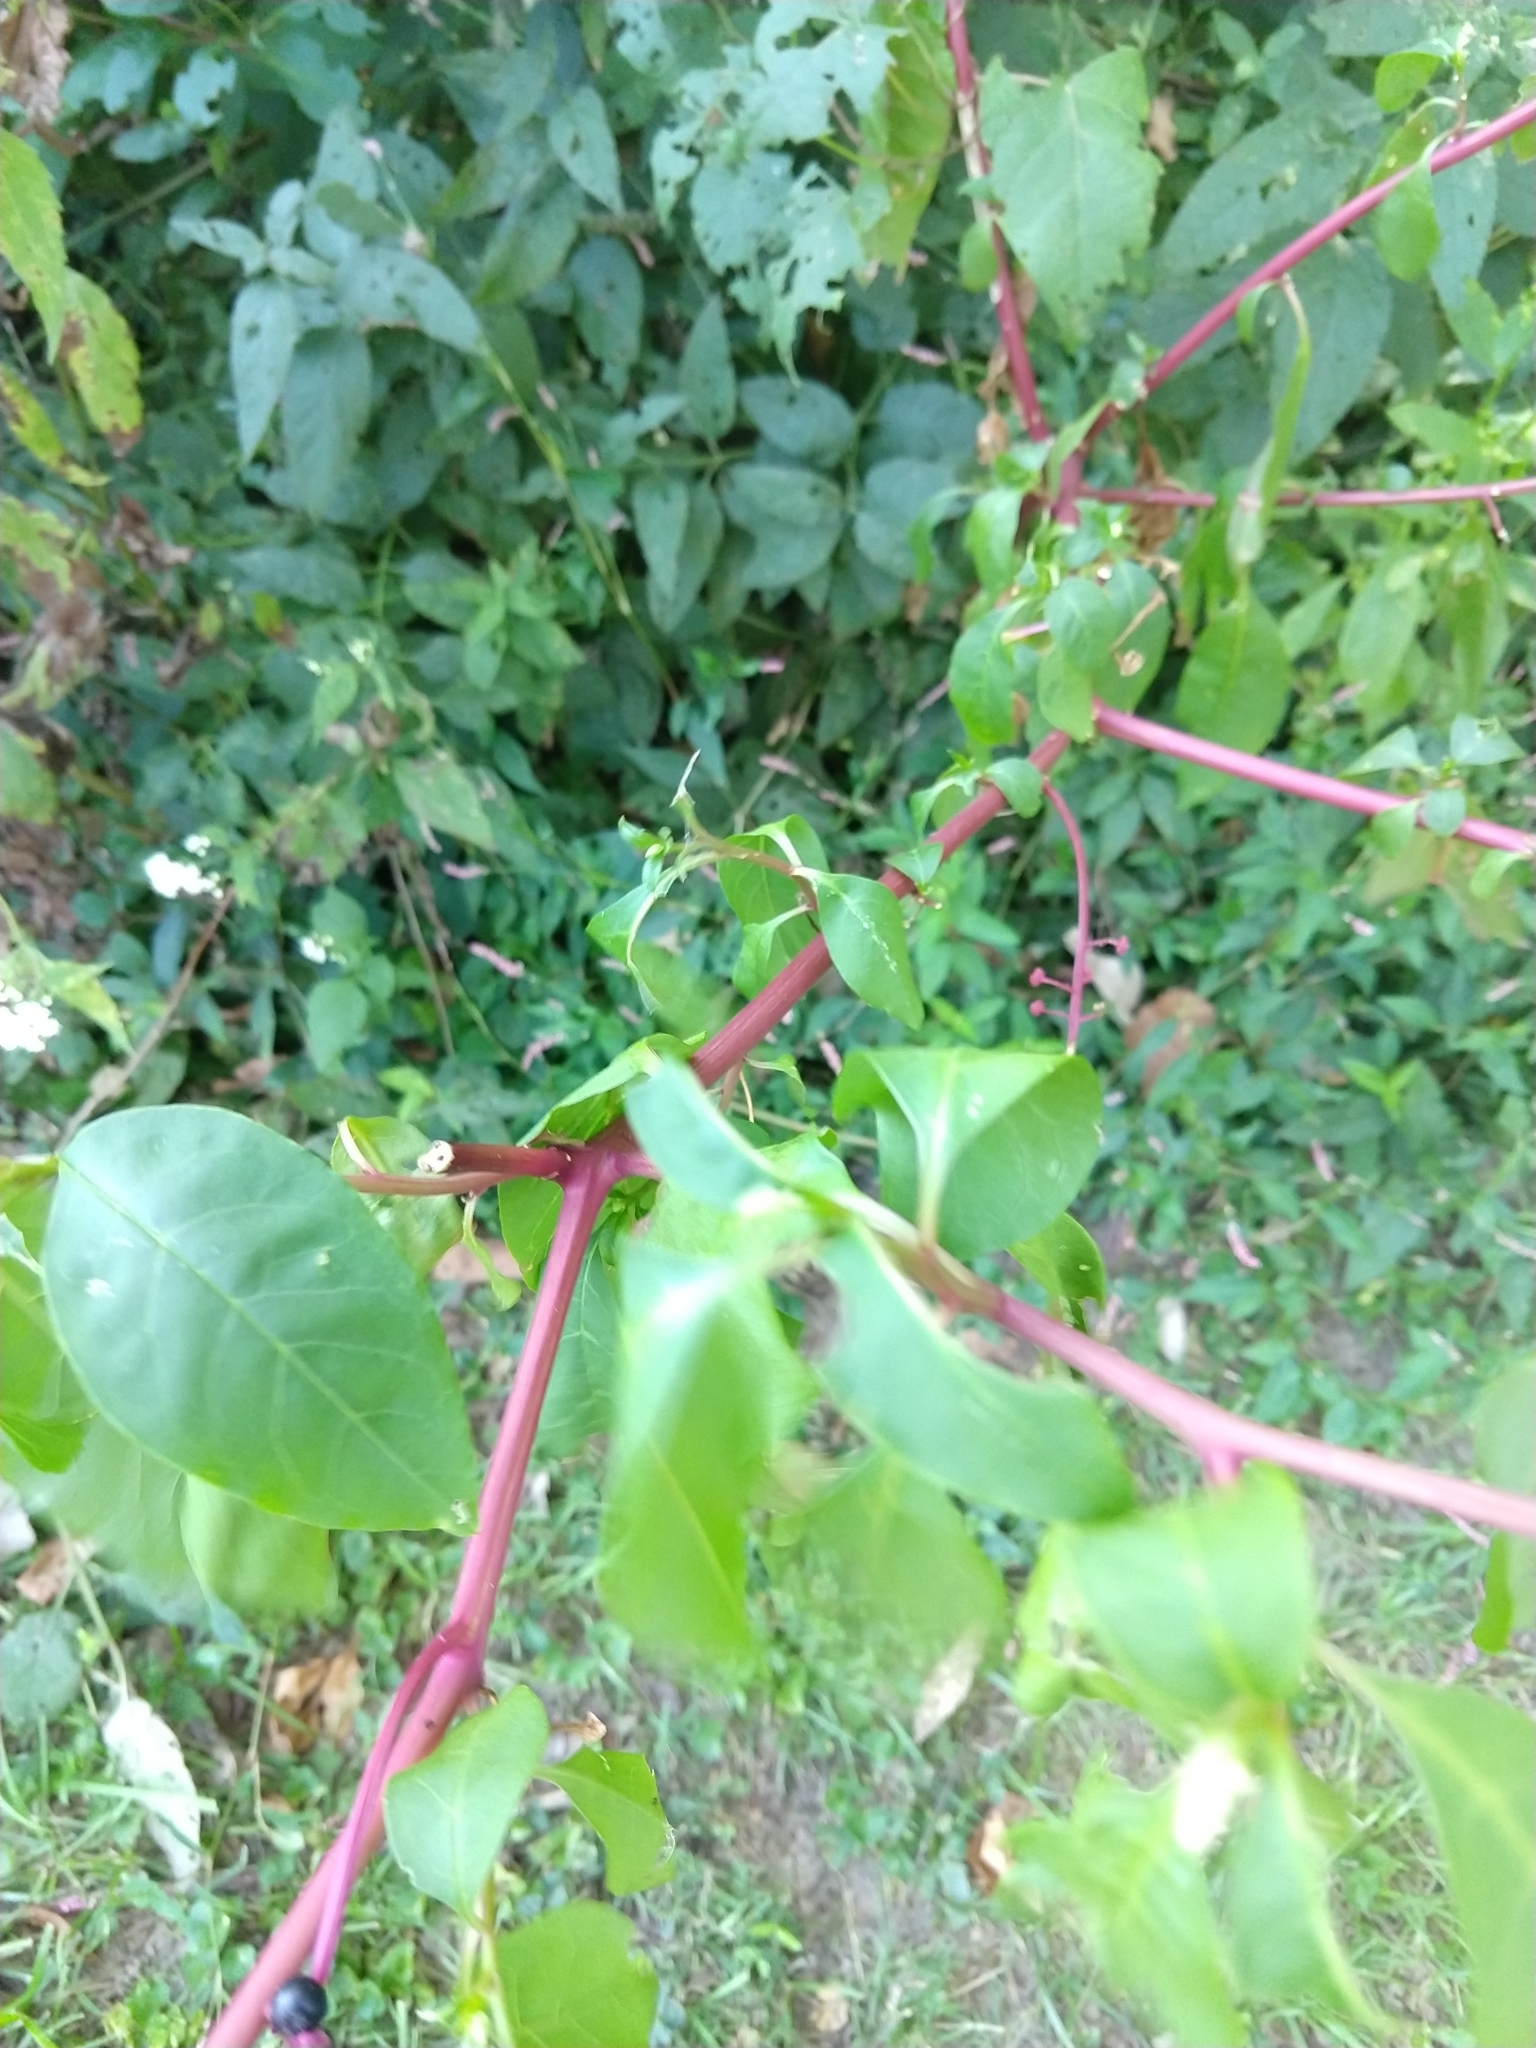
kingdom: Plantae
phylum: Tracheophyta
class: Magnoliopsida
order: Caryophyllales
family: Phytolaccaceae
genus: Phytolacca
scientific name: Phytolacca americana
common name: American pokeweed
